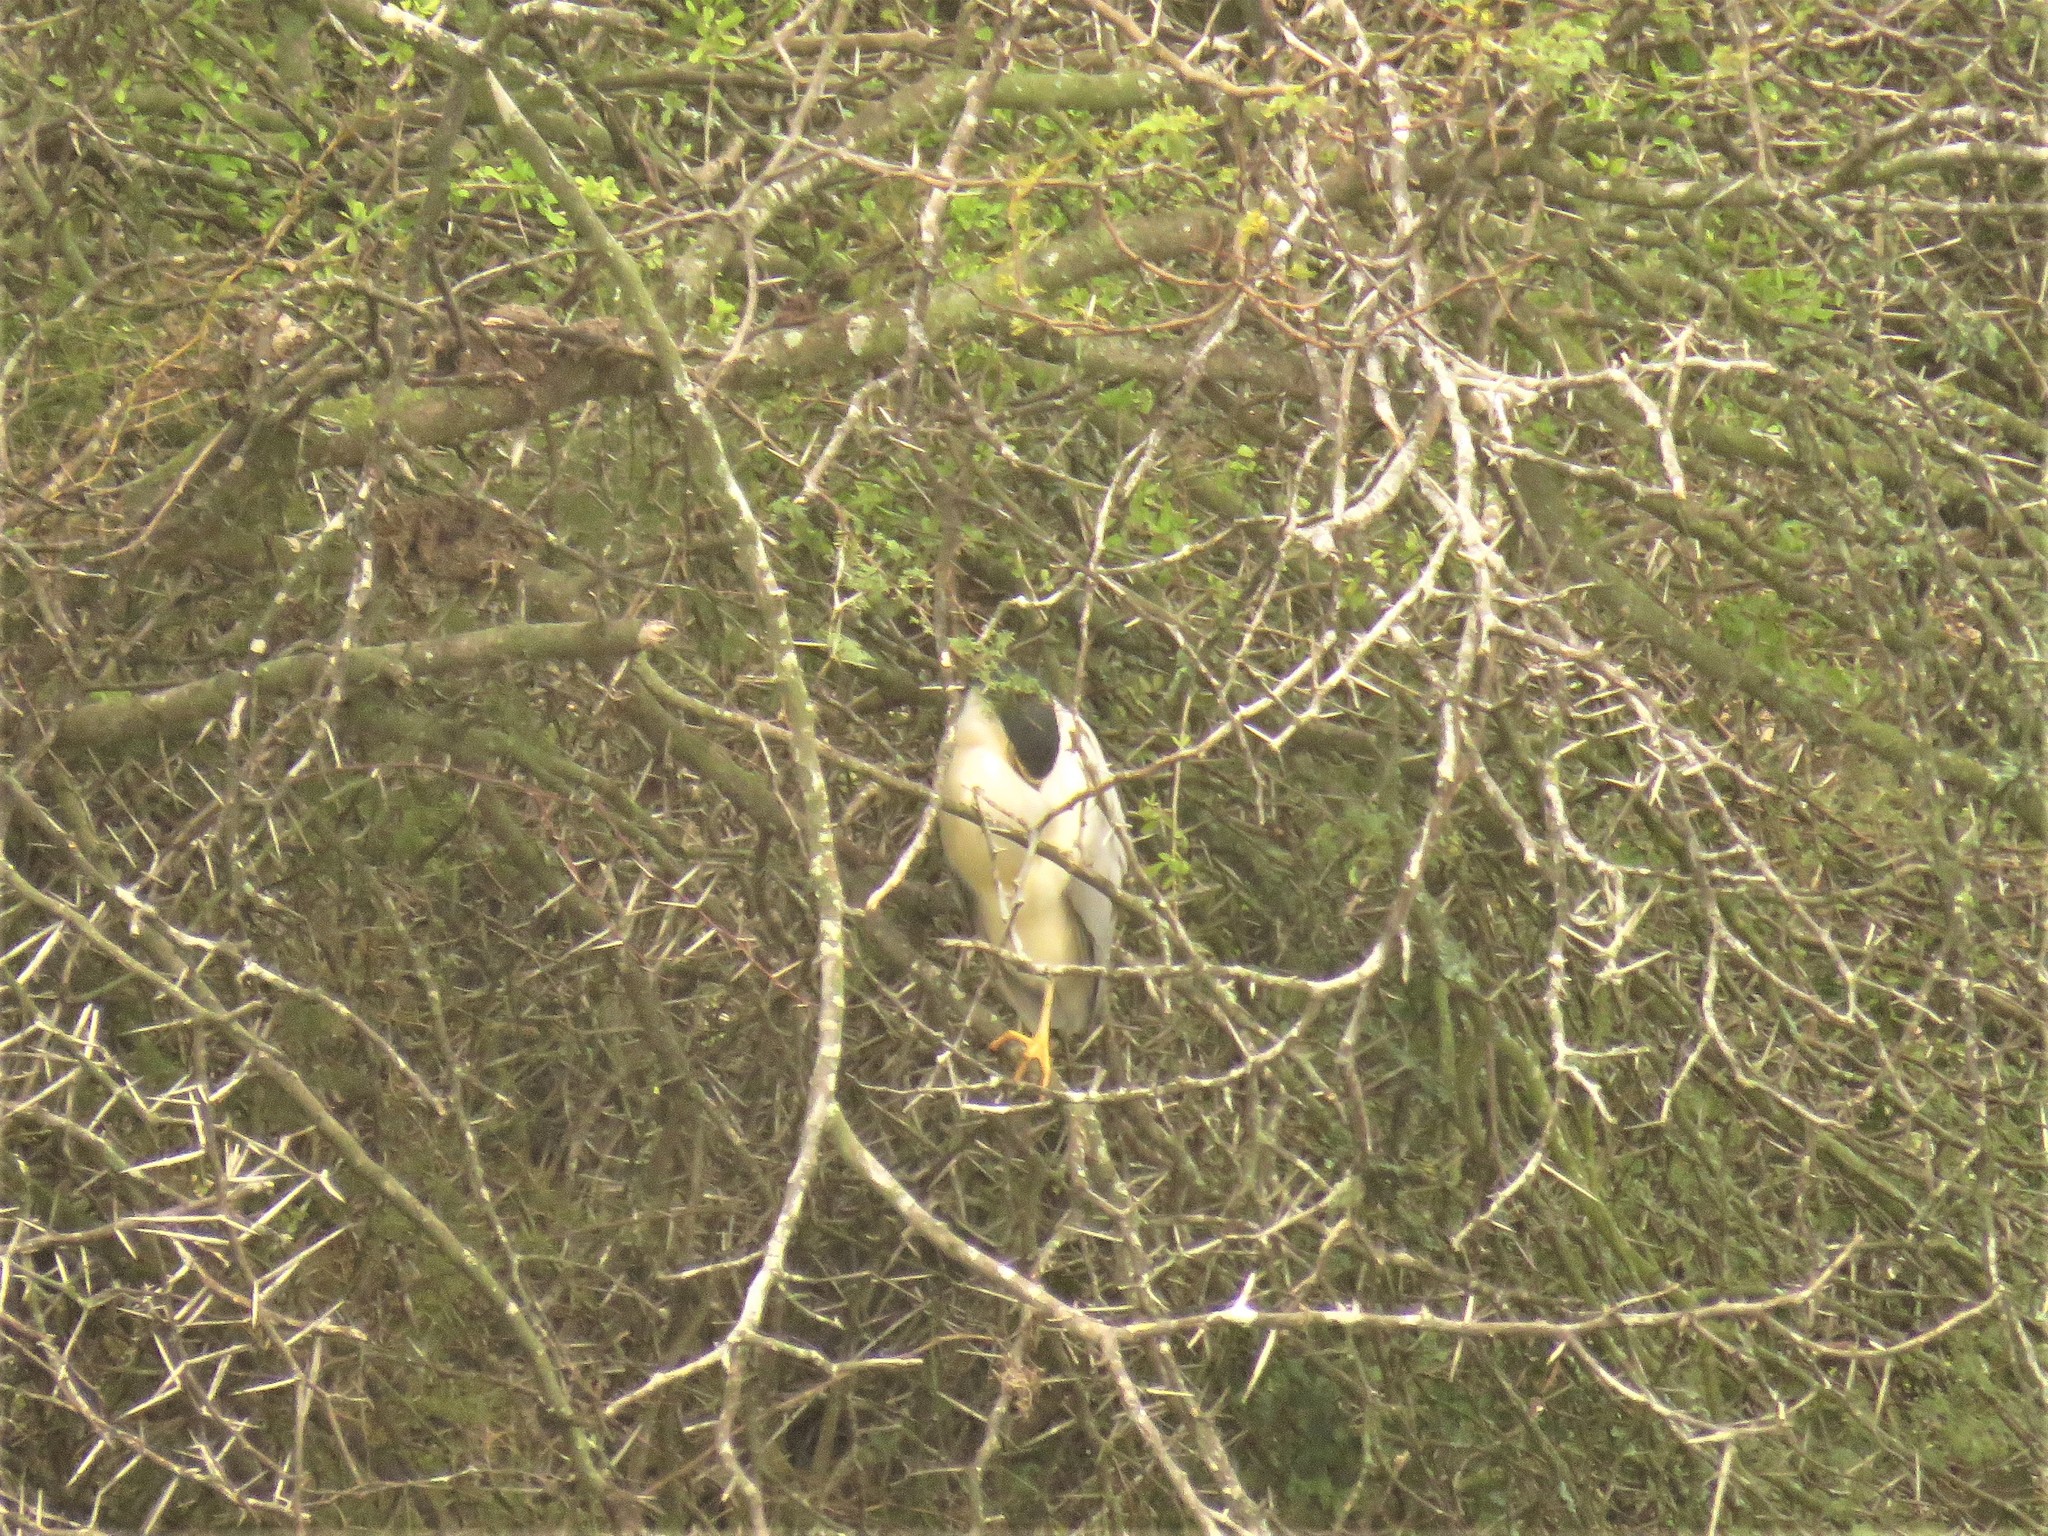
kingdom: Animalia
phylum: Chordata
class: Aves
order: Pelecaniformes
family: Ardeidae
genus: Nycticorax
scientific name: Nycticorax nycticorax
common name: Black-crowned night heron
